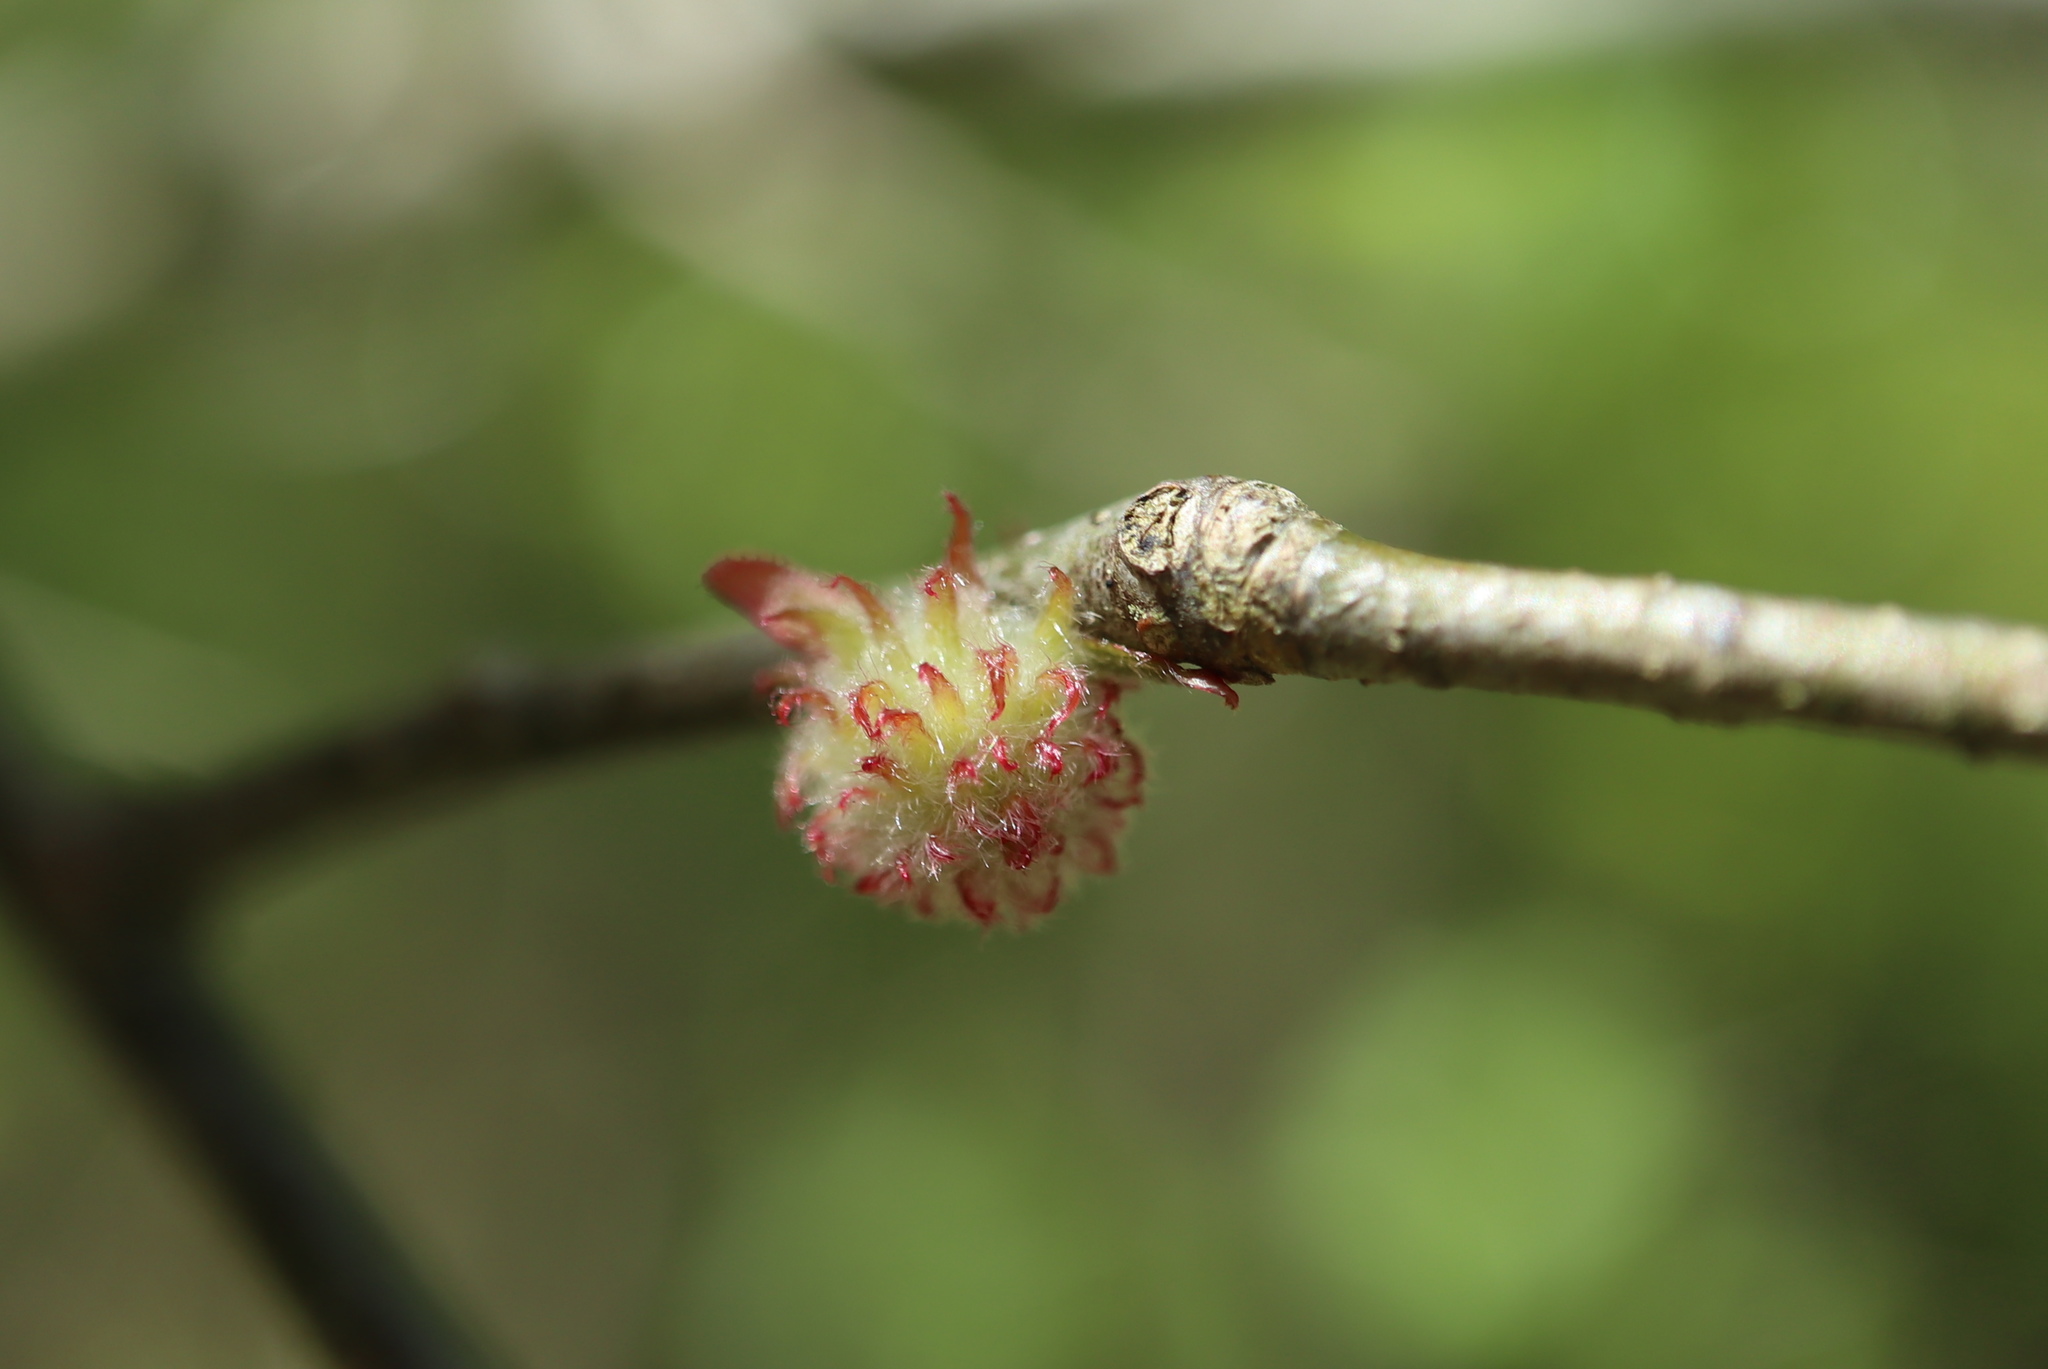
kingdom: Animalia
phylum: Arthropoda
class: Insecta
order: Hymenoptera
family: Cynipidae
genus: Dryocosmus
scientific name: Dryocosmus
